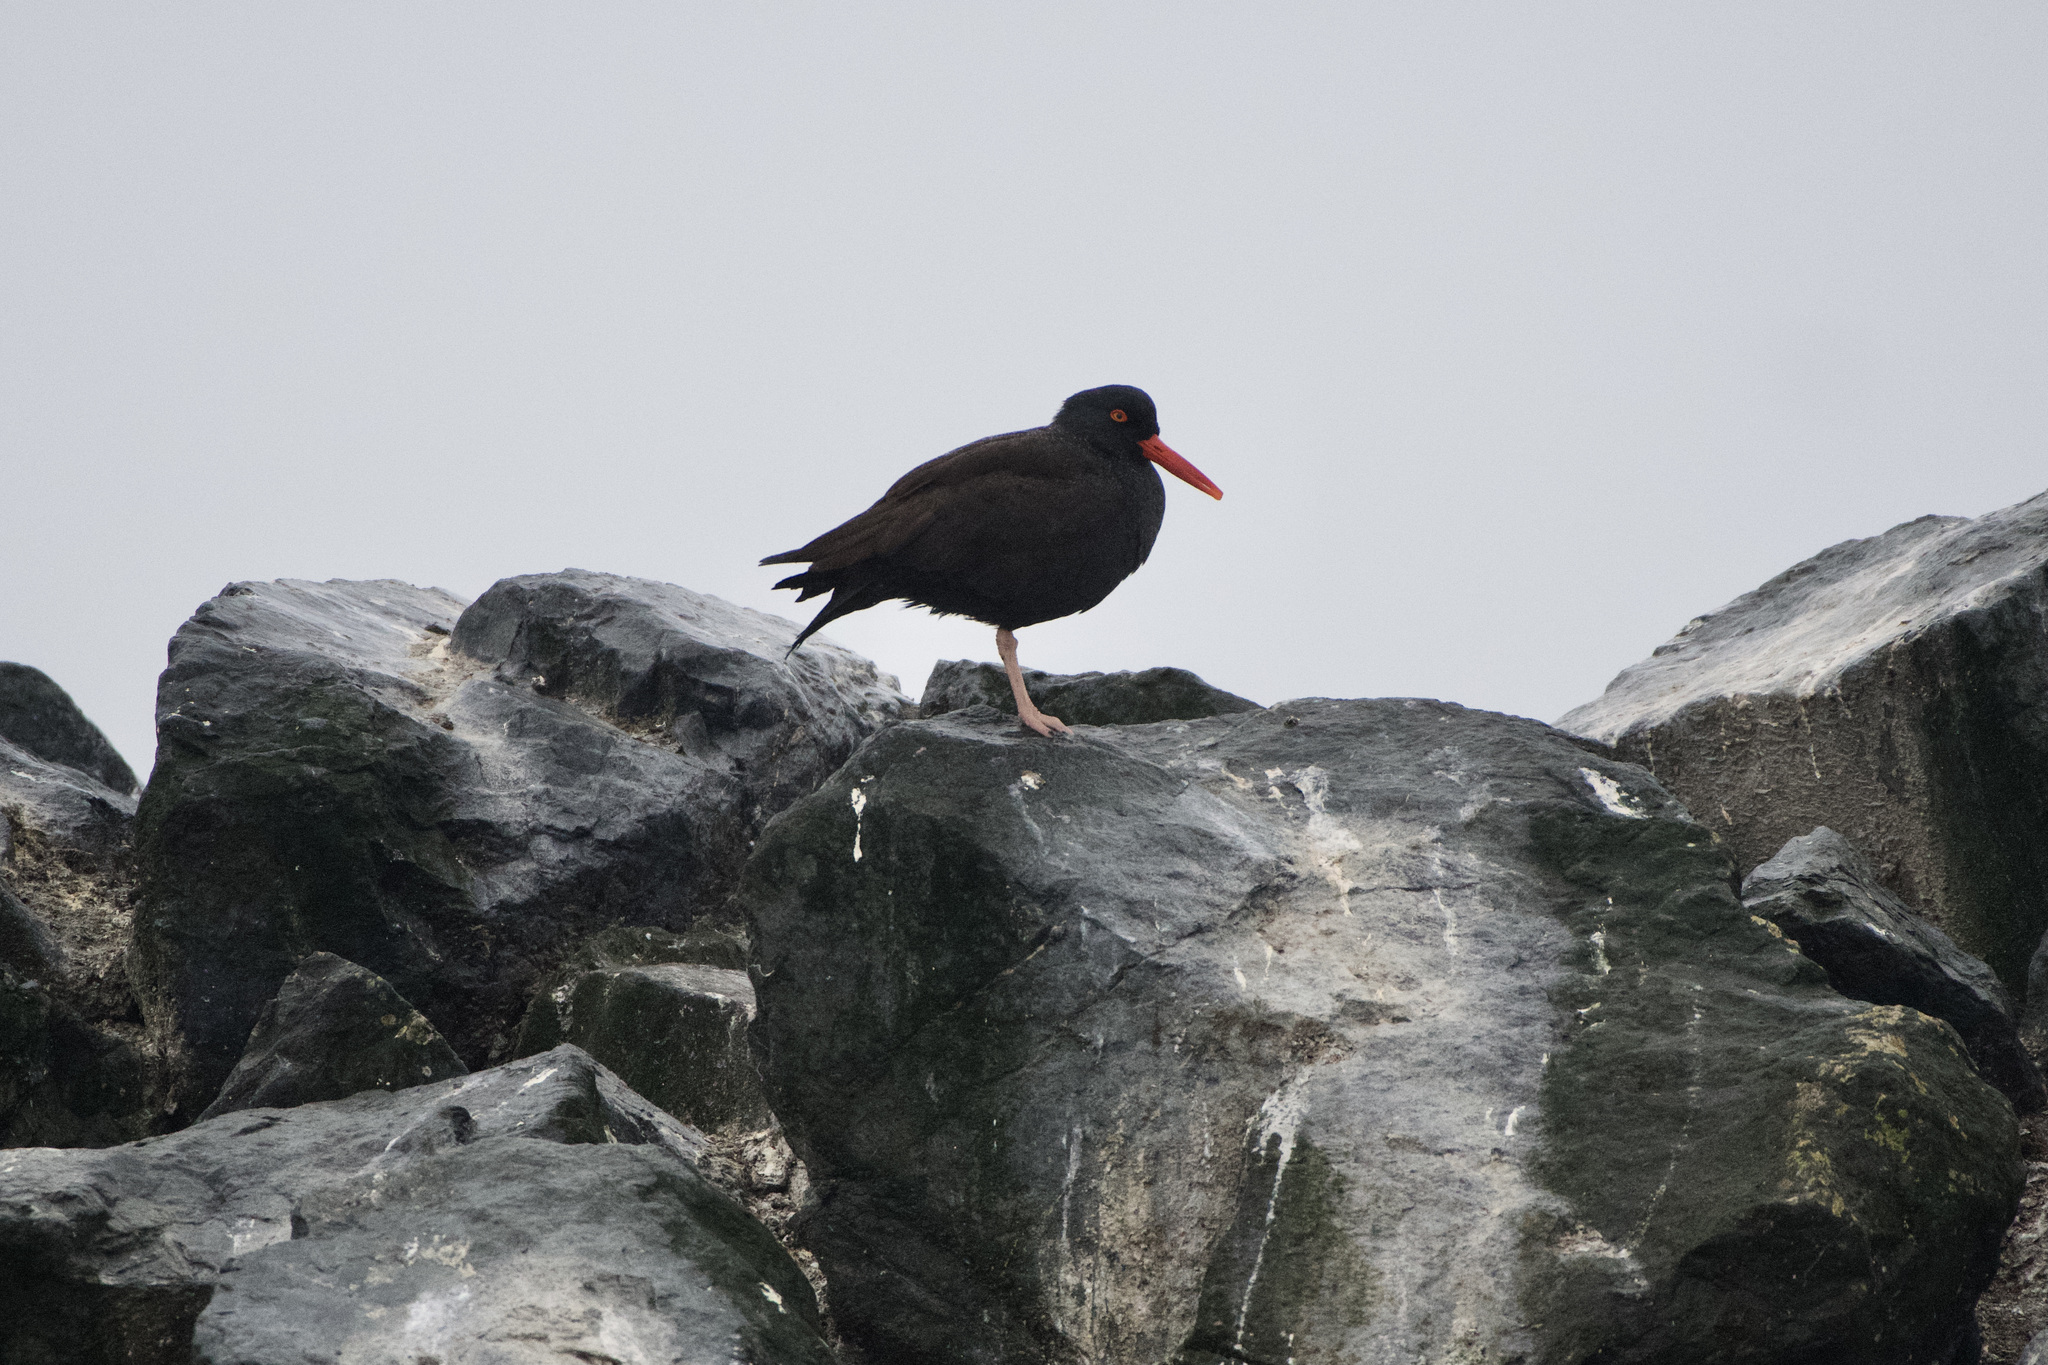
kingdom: Animalia
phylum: Chordata
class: Aves
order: Charadriiformes
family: Haematopodidae
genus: Haematopus
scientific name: Haematopus bachmani
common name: Black oystercatcher
